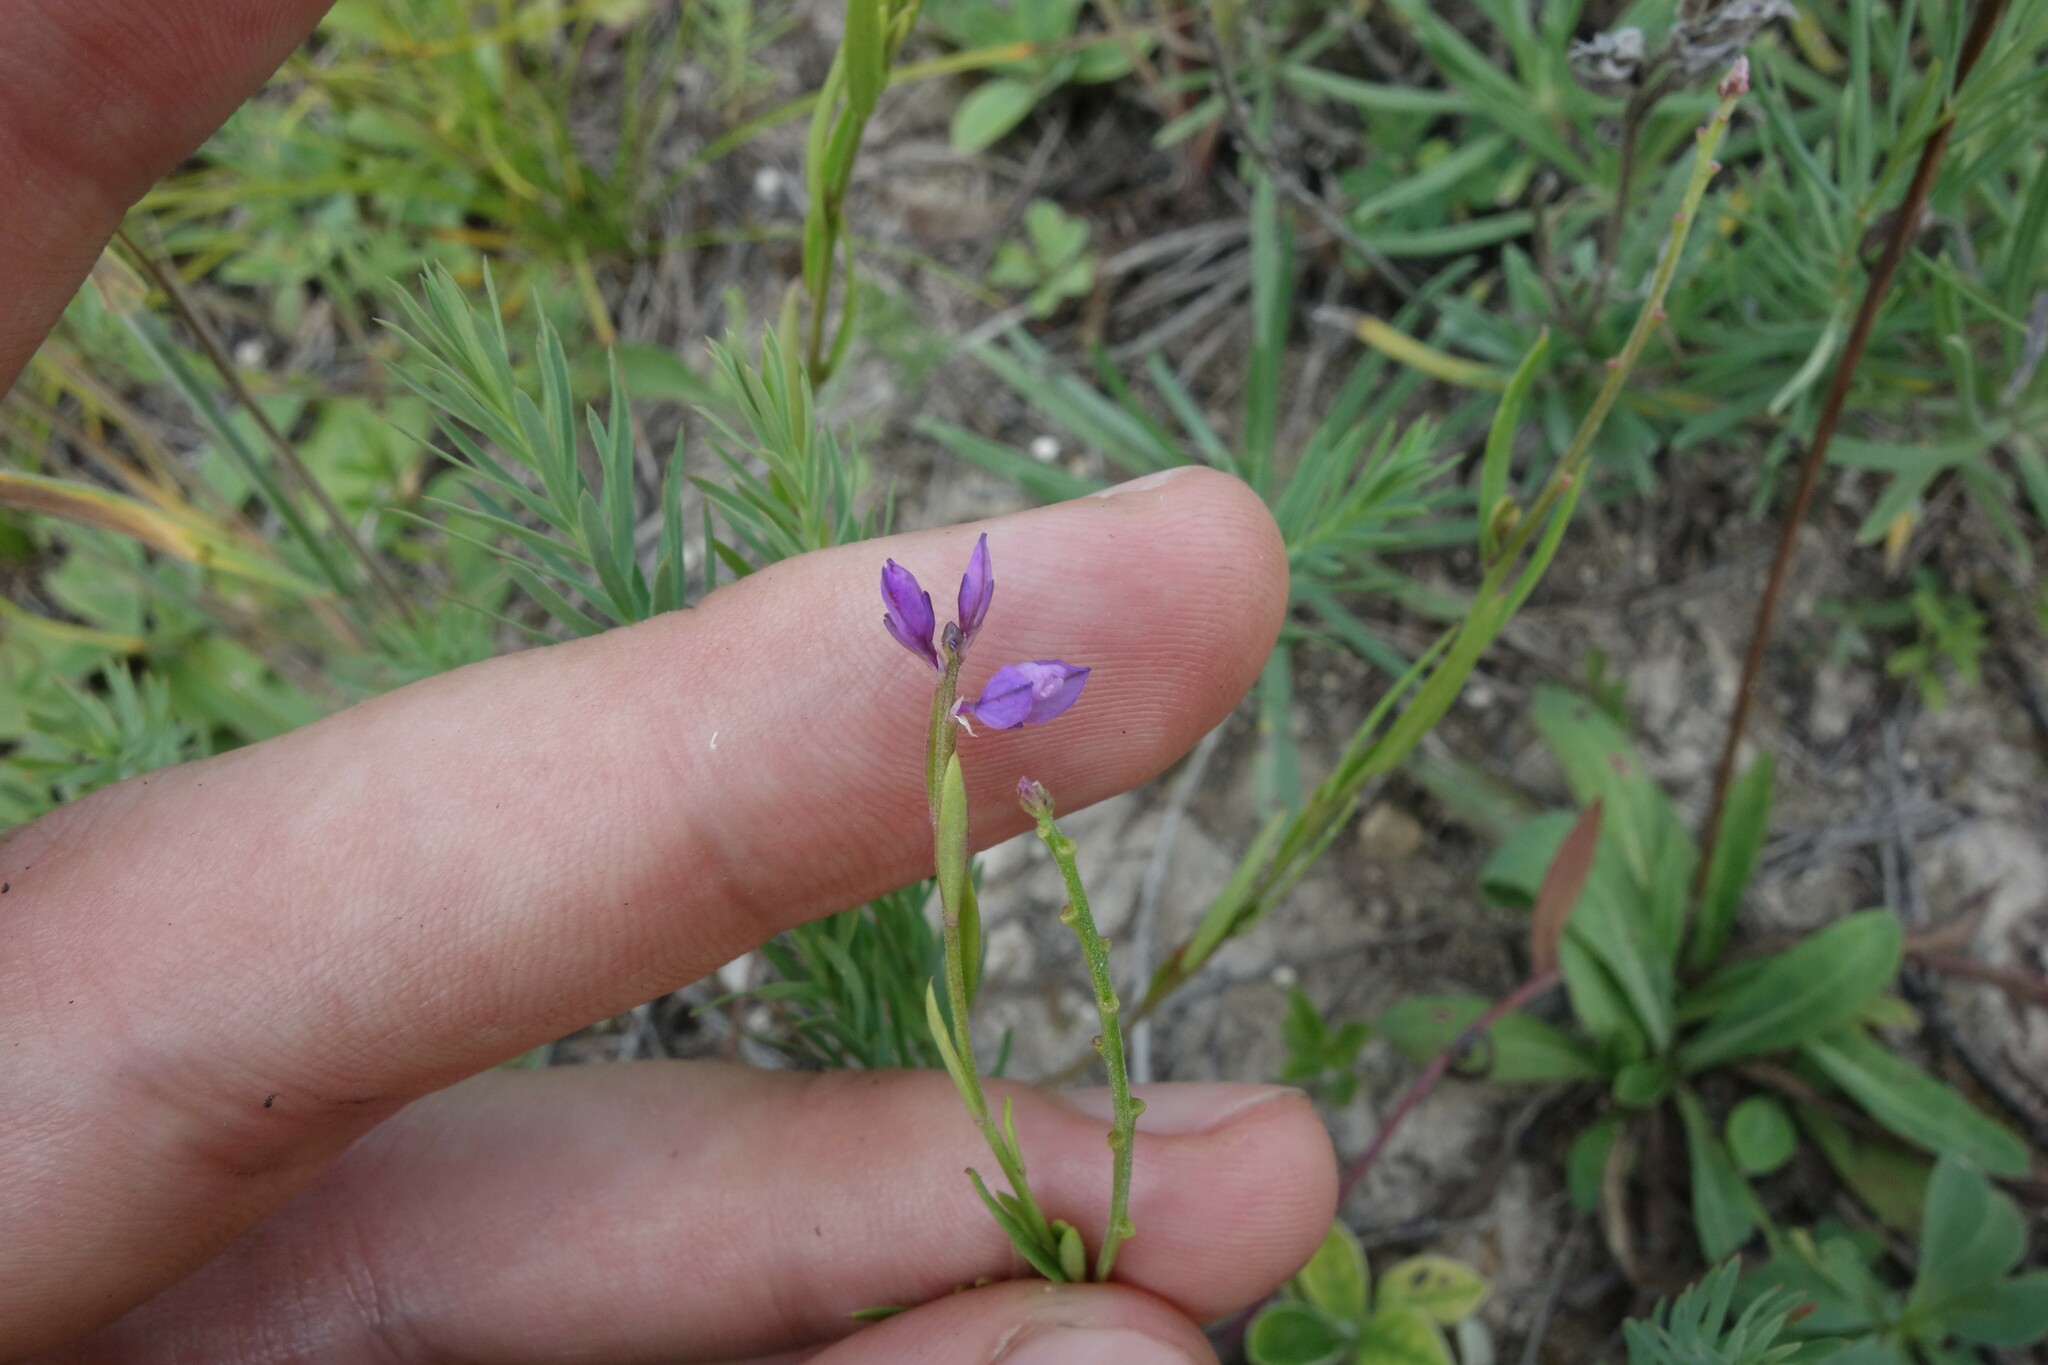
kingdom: Plantae
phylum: Tracheophyta
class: Magnoliopsida
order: Fabales
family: Polygalaceae
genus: Polygala
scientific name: Polygala comosa
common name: Tufted milkwort
